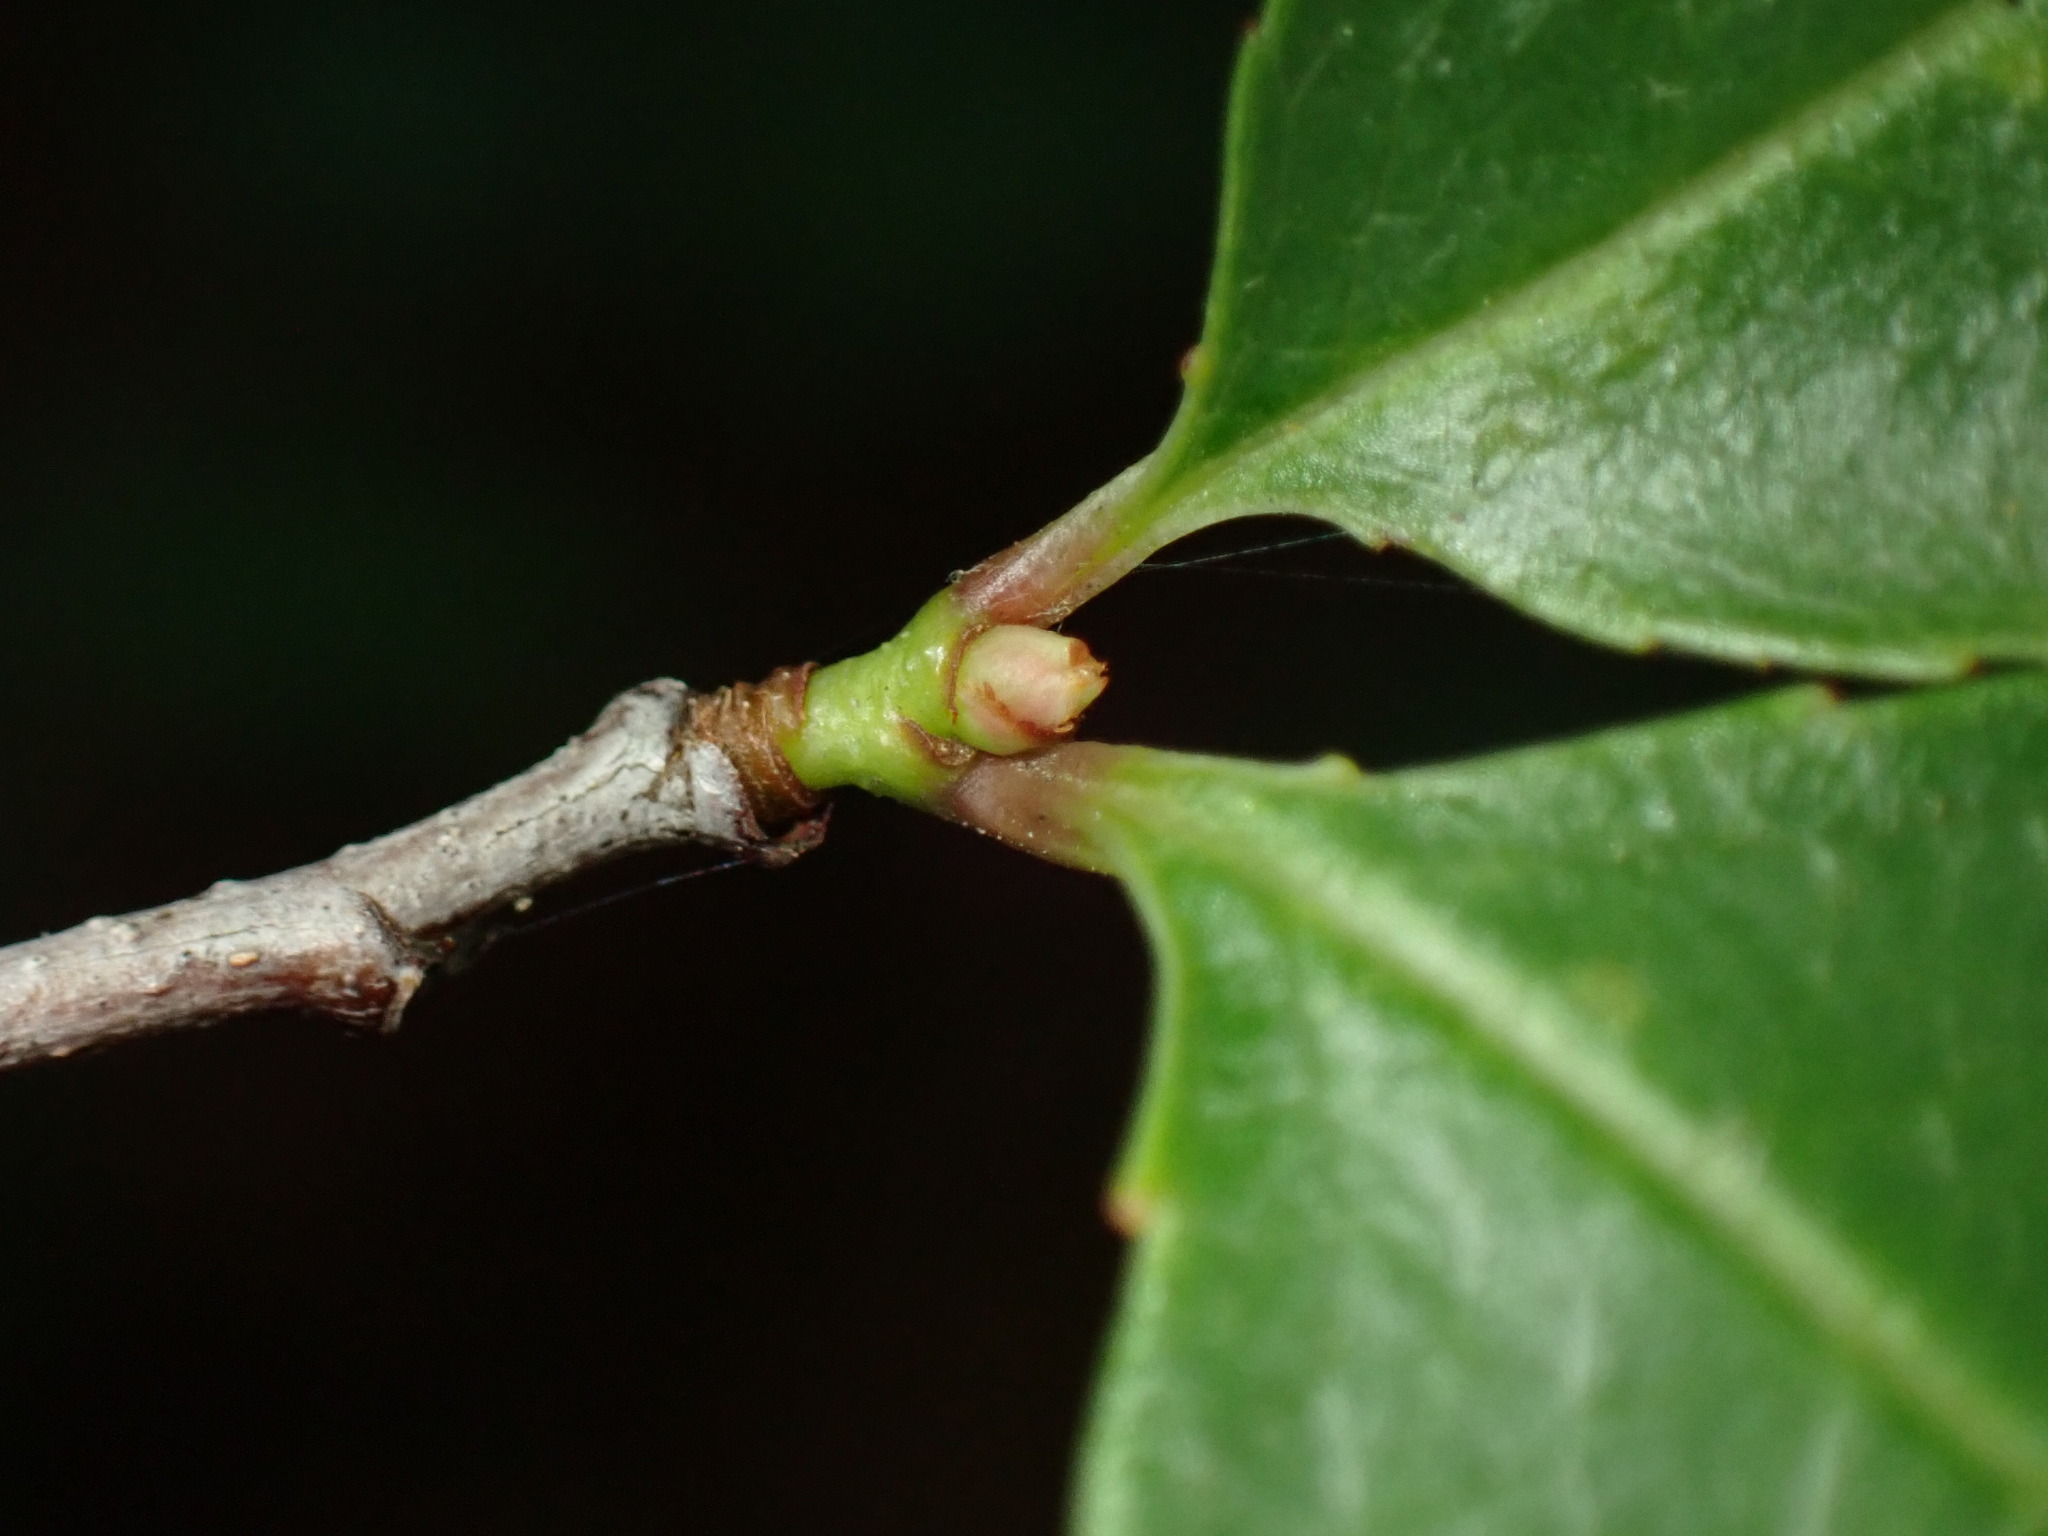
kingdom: Plantae
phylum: Tracheophyta
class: Magnoliopsida
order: Rosales
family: Rosaceae
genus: Prunus
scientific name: Prunus serotina
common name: Black cherry
